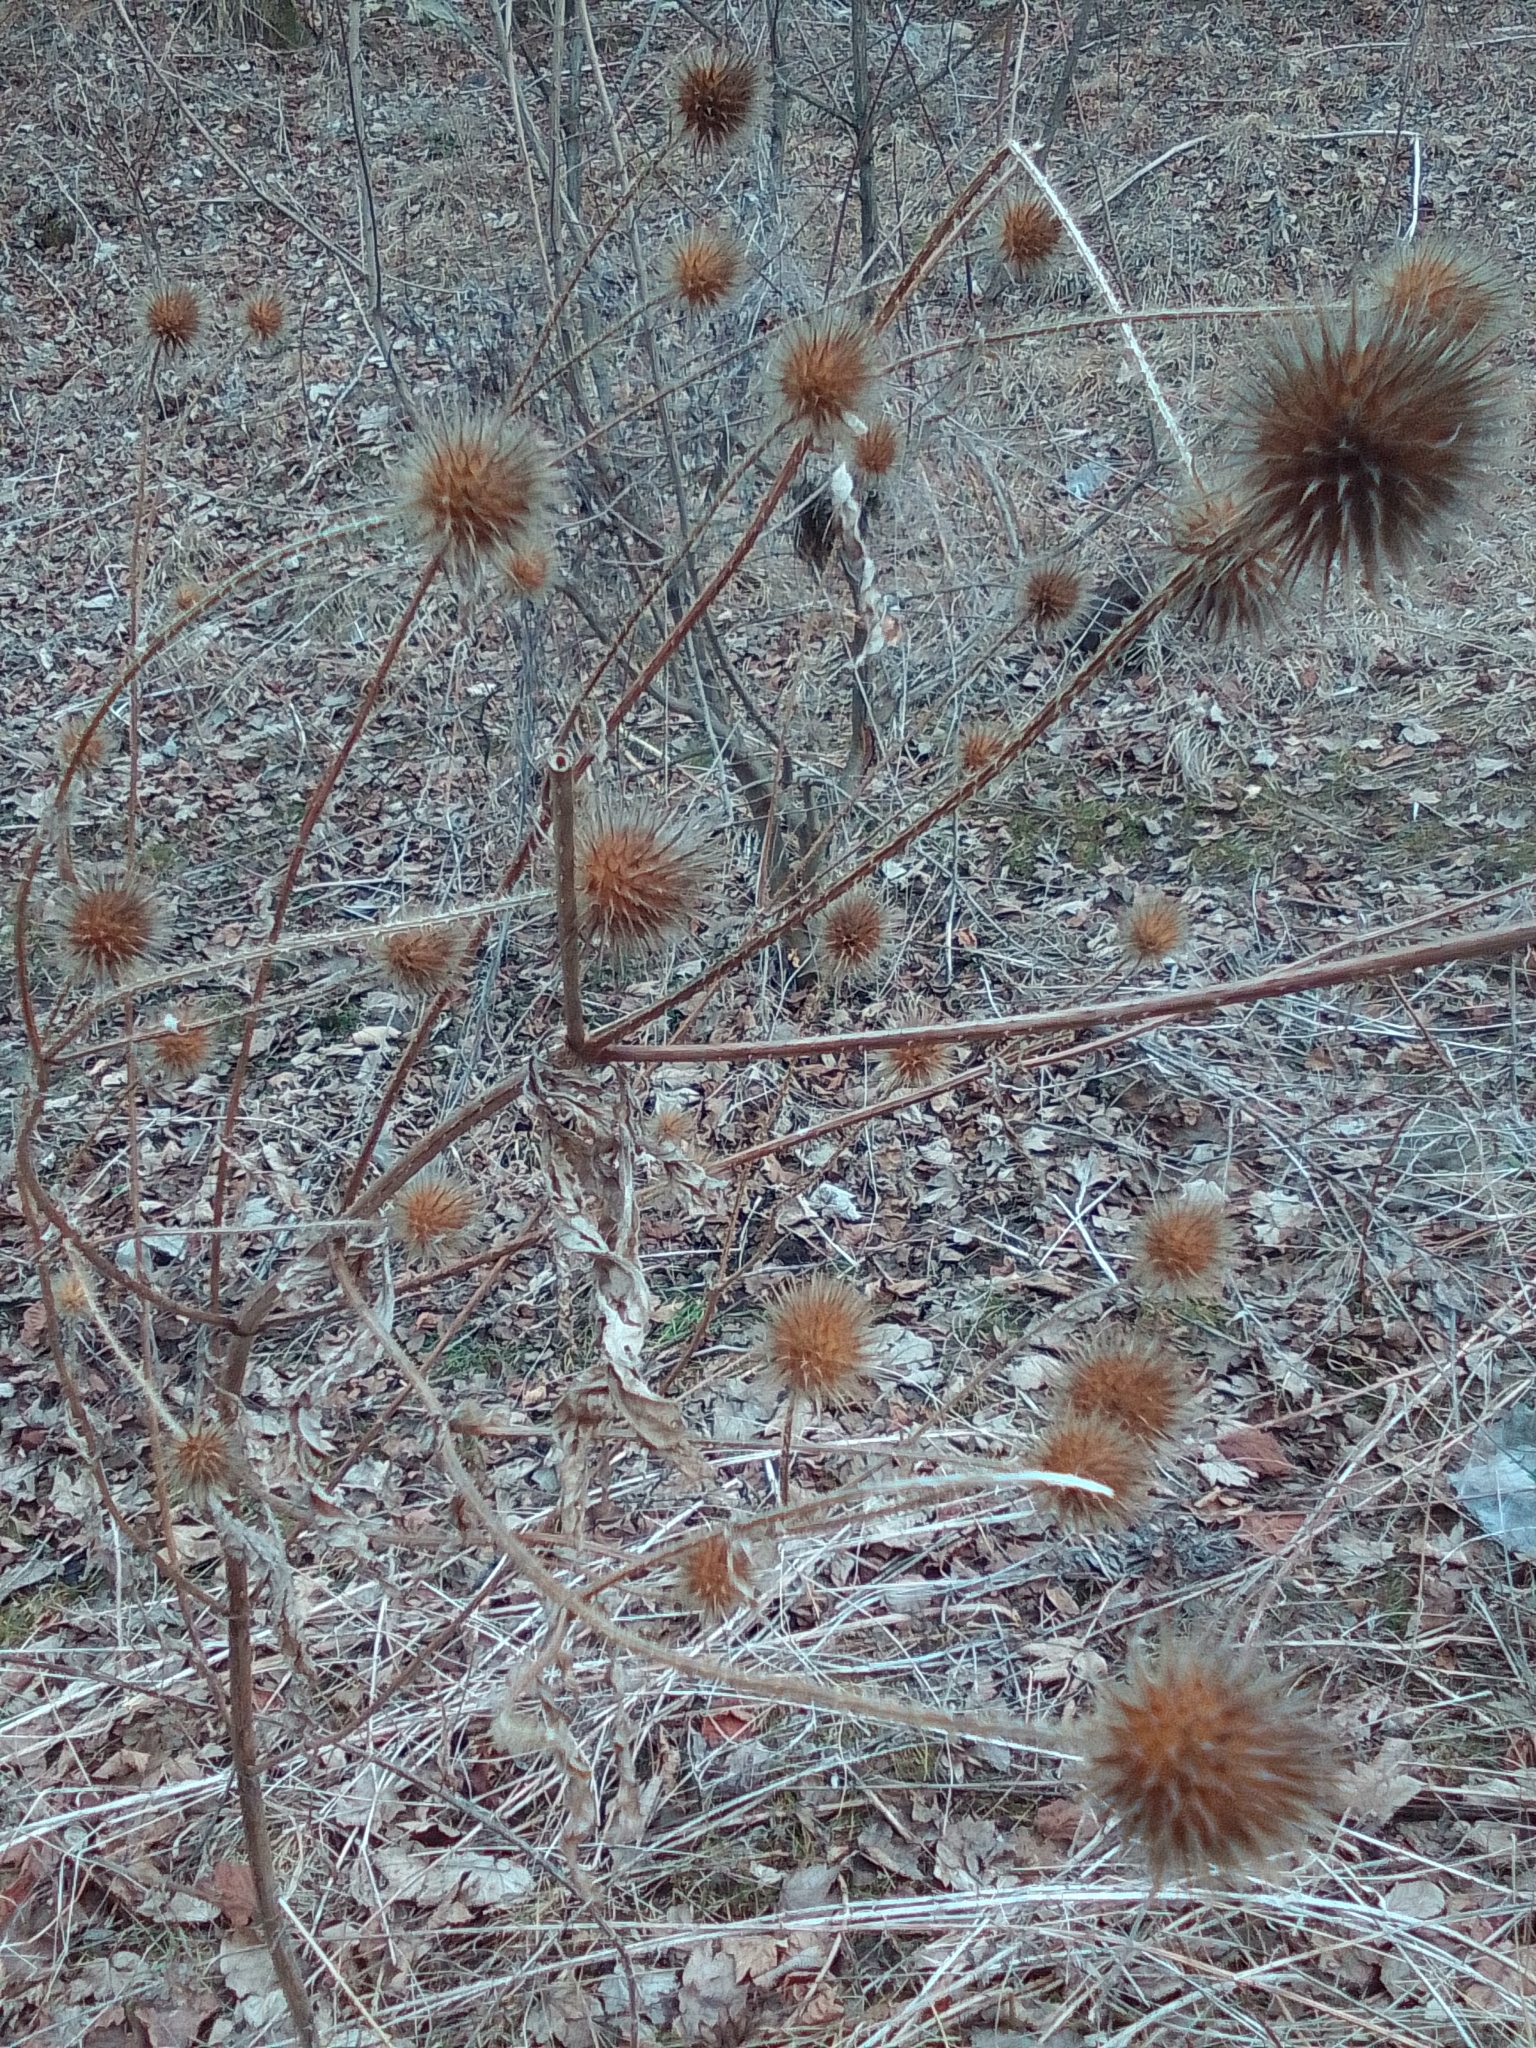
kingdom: Plantae
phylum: Tracheophyta
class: Magnoliopsida
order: Dipsacales
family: Caprifoliaceae
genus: Dipsacus
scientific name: Dipsacus strigosus
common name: Yellow-flowered teasel
